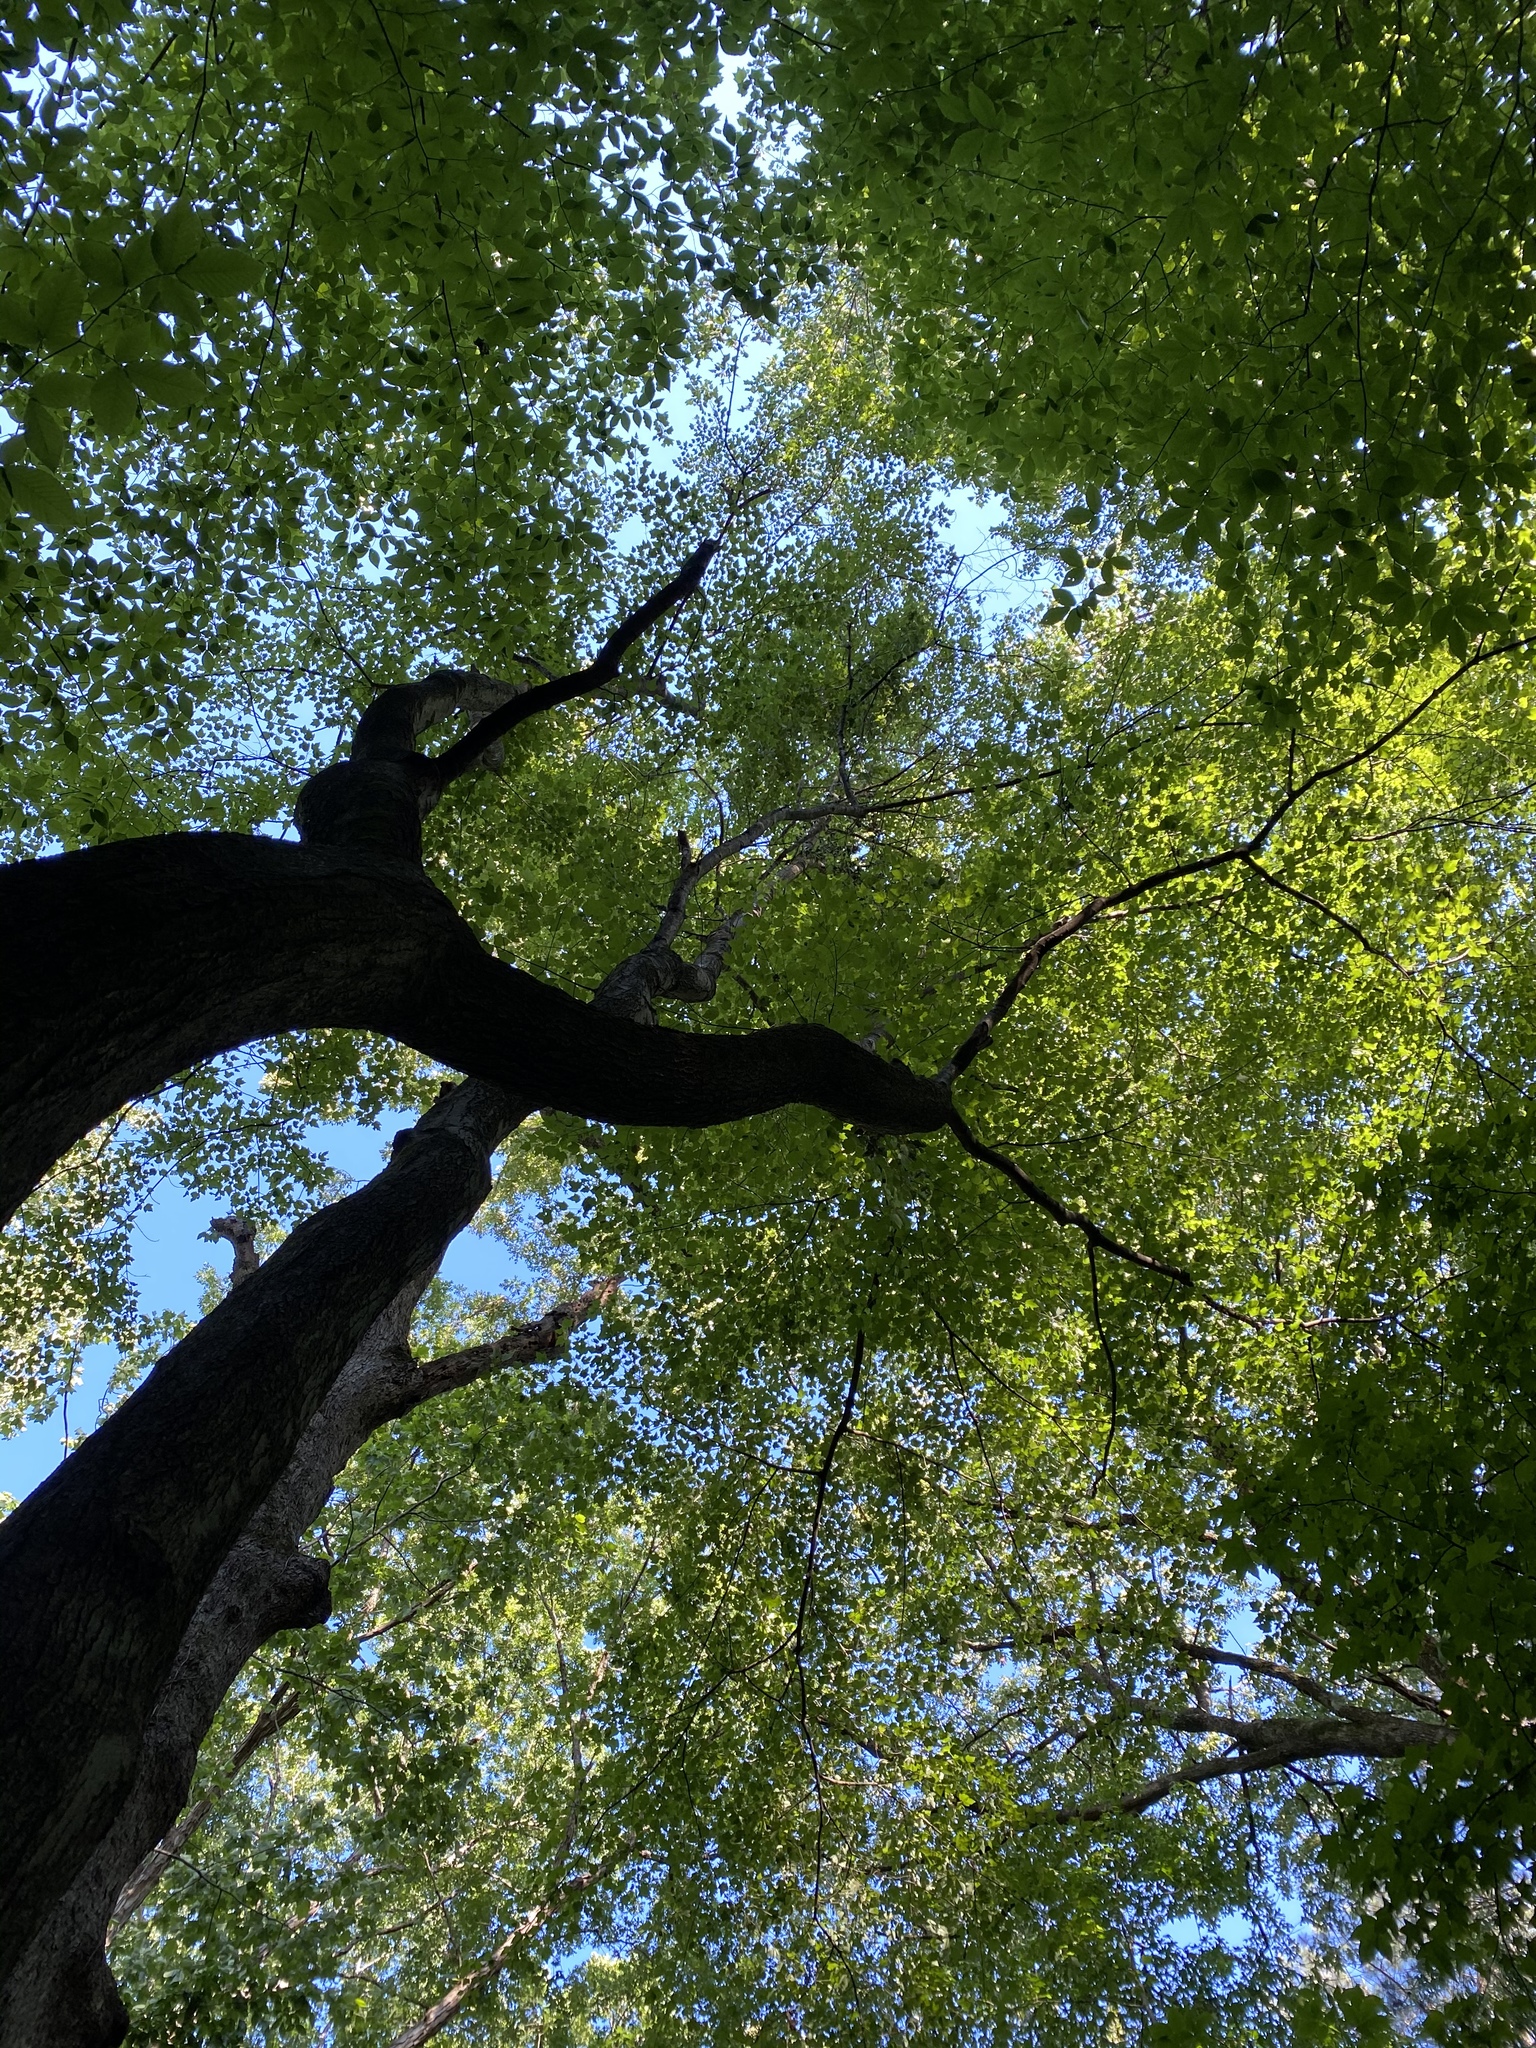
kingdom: Plantae
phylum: Tracheophyta
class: Magnoliopsida
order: Sapindales
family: Sapindaceae
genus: Acer
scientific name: Acer rubrum
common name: Red maple
